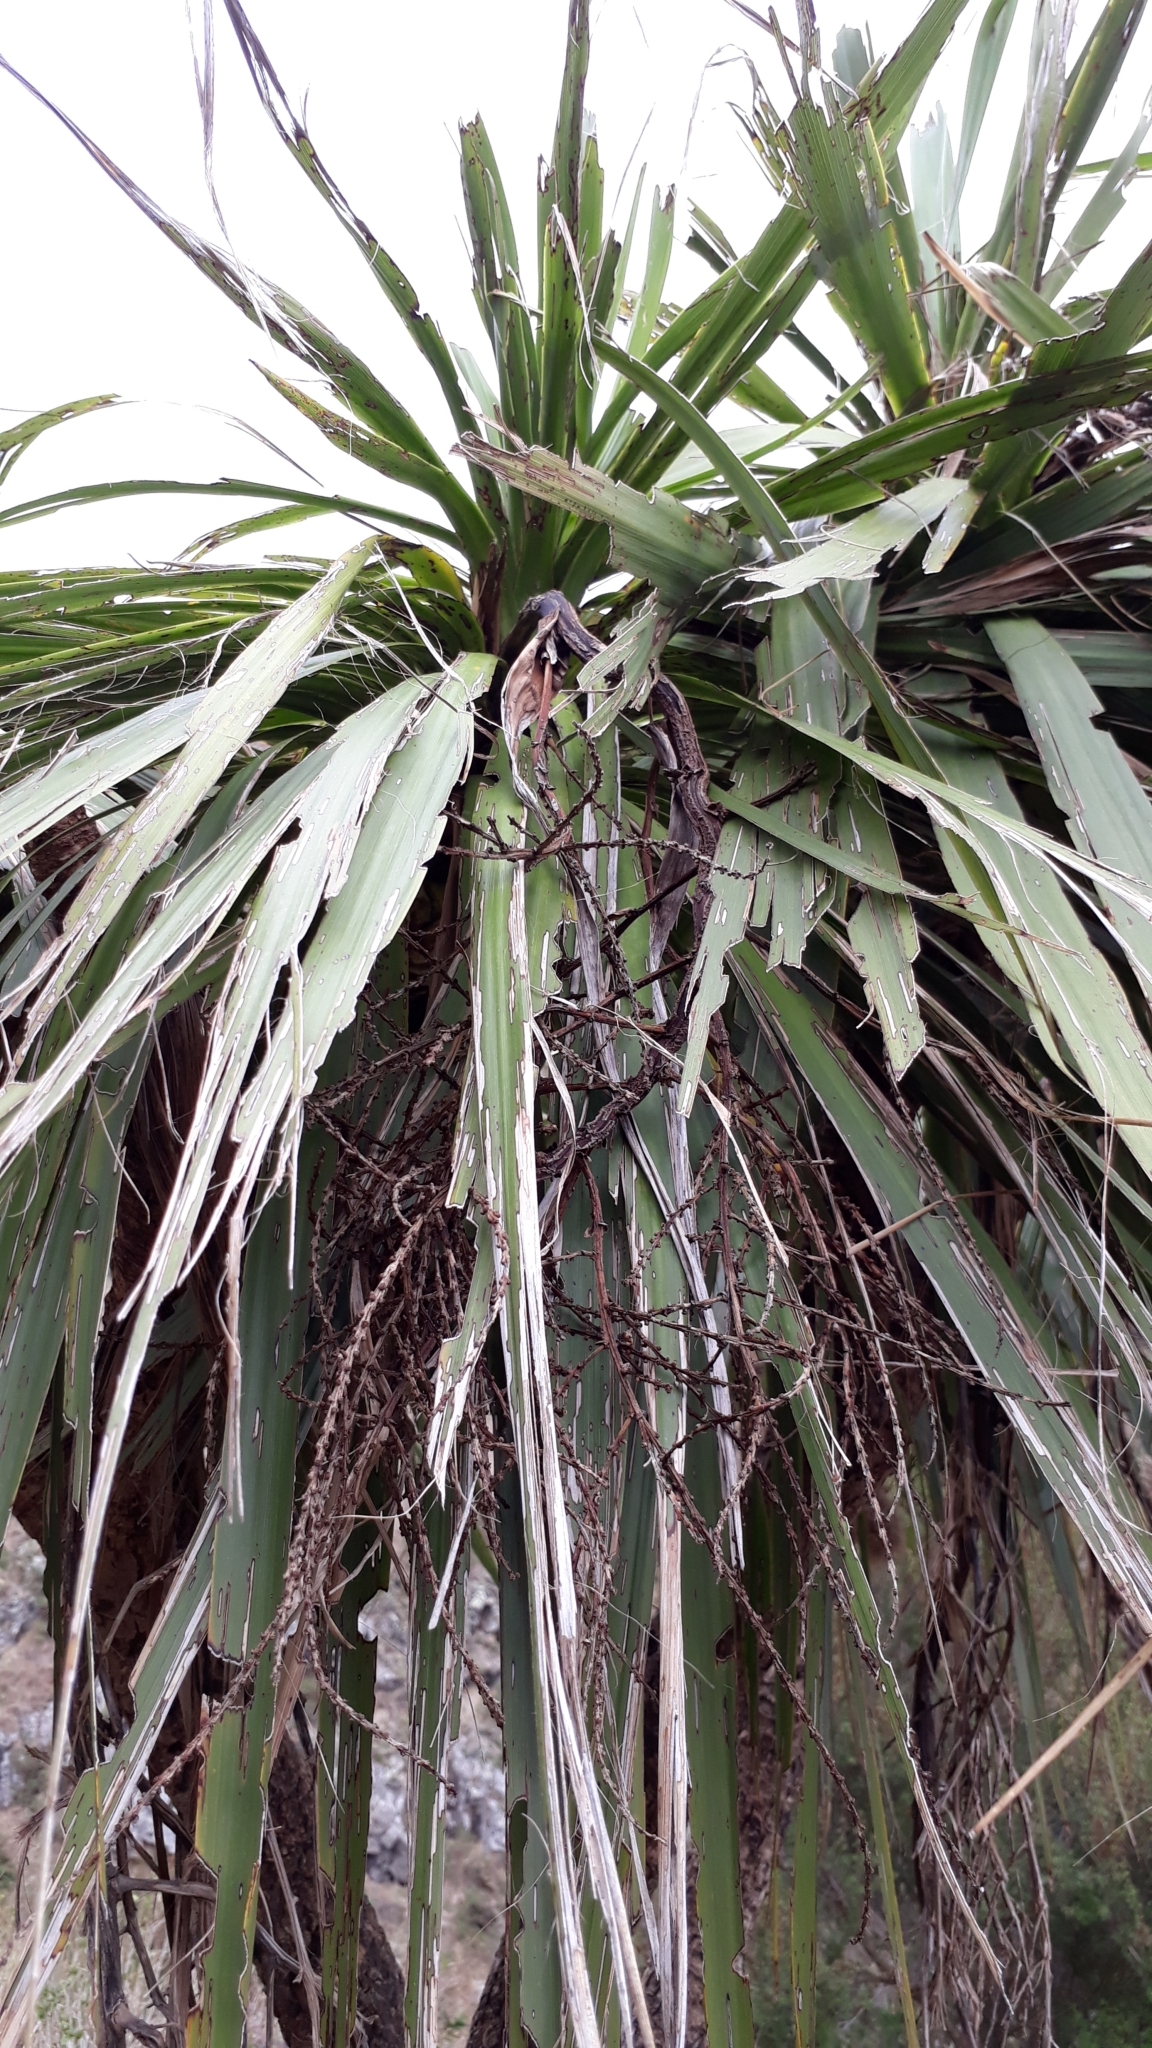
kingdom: Plantae
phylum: Tracheophyta
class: Liliopsida
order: Asparagales
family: Asparagaceae
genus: Cordyline
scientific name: Cordyline australis
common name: Cabbage-palm
